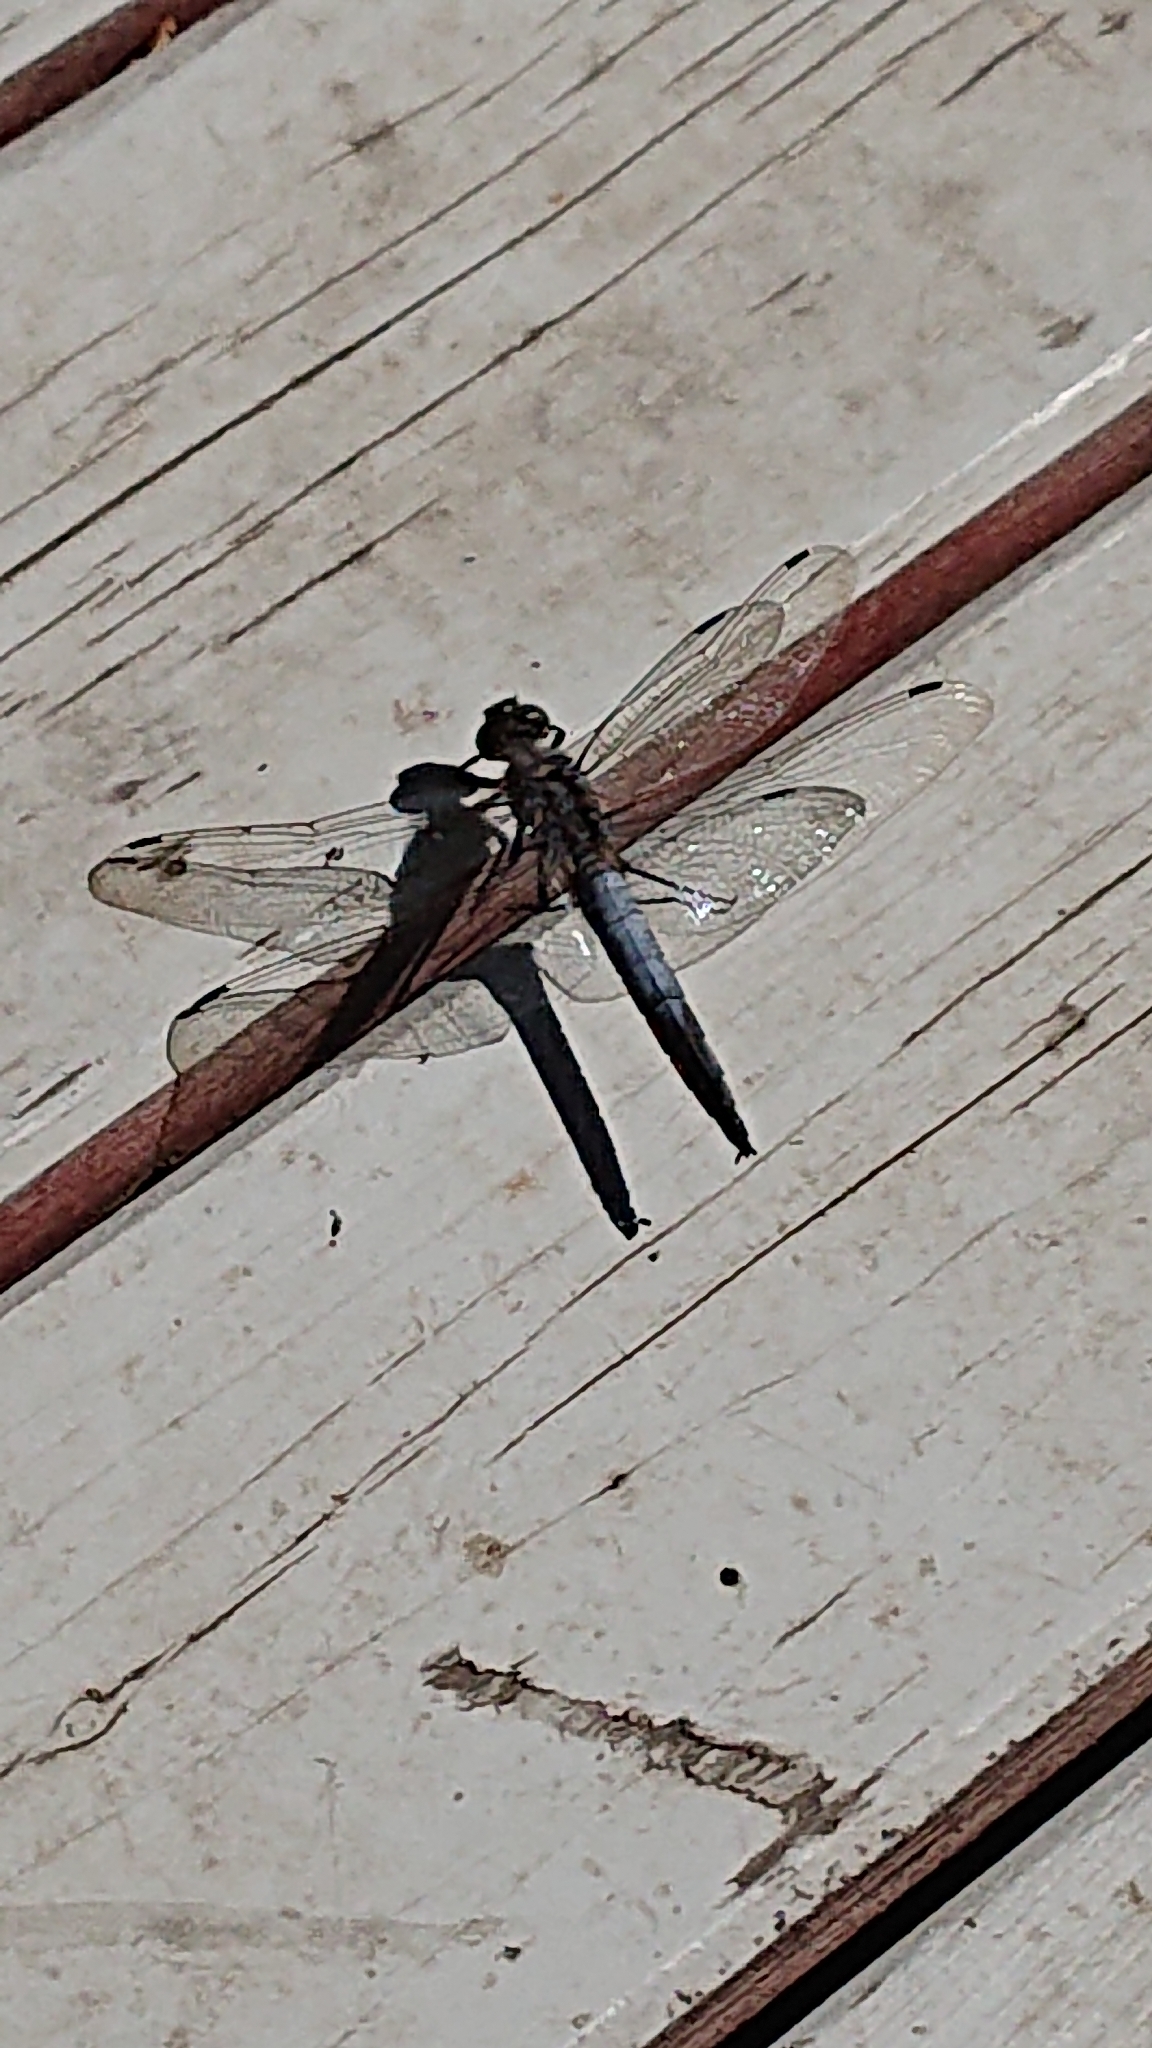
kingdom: Animalia
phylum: Arthropoda
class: Insecta
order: Odonata
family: Libellulidae
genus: Orthetrum
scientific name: Orthetrum cancellatum
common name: Black-tailed skimmer
